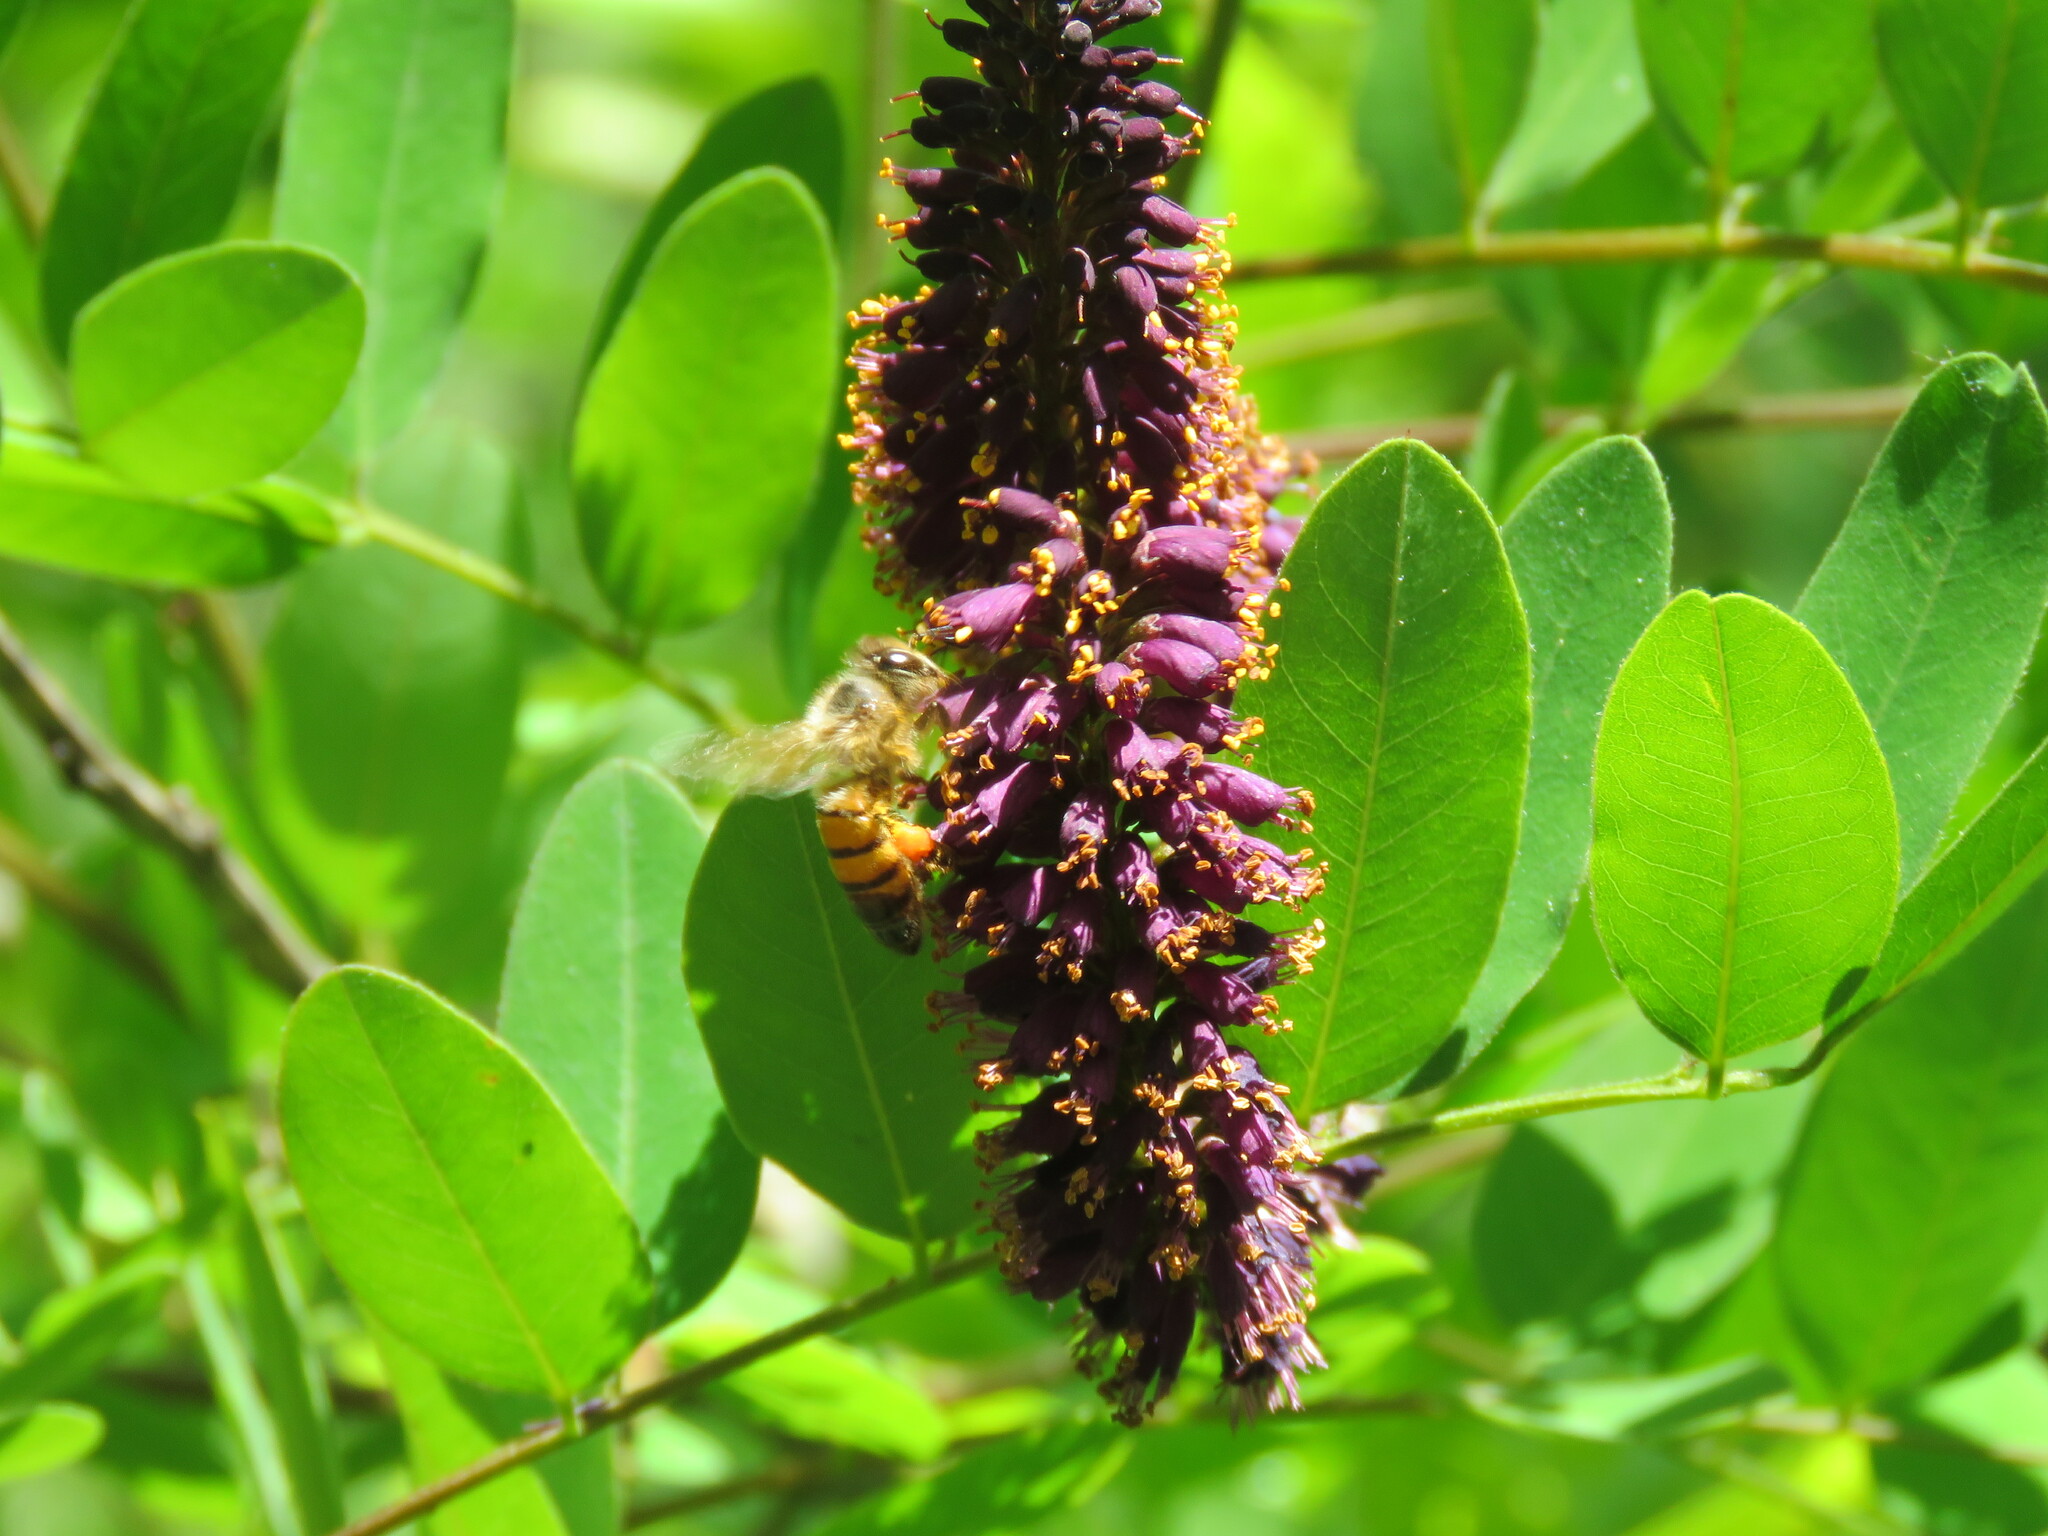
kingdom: Animalia
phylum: Arthropoda
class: Insecta
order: Hymenoptera
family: Apidae
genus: Apis
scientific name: Apis mellifera
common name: Honey bee
